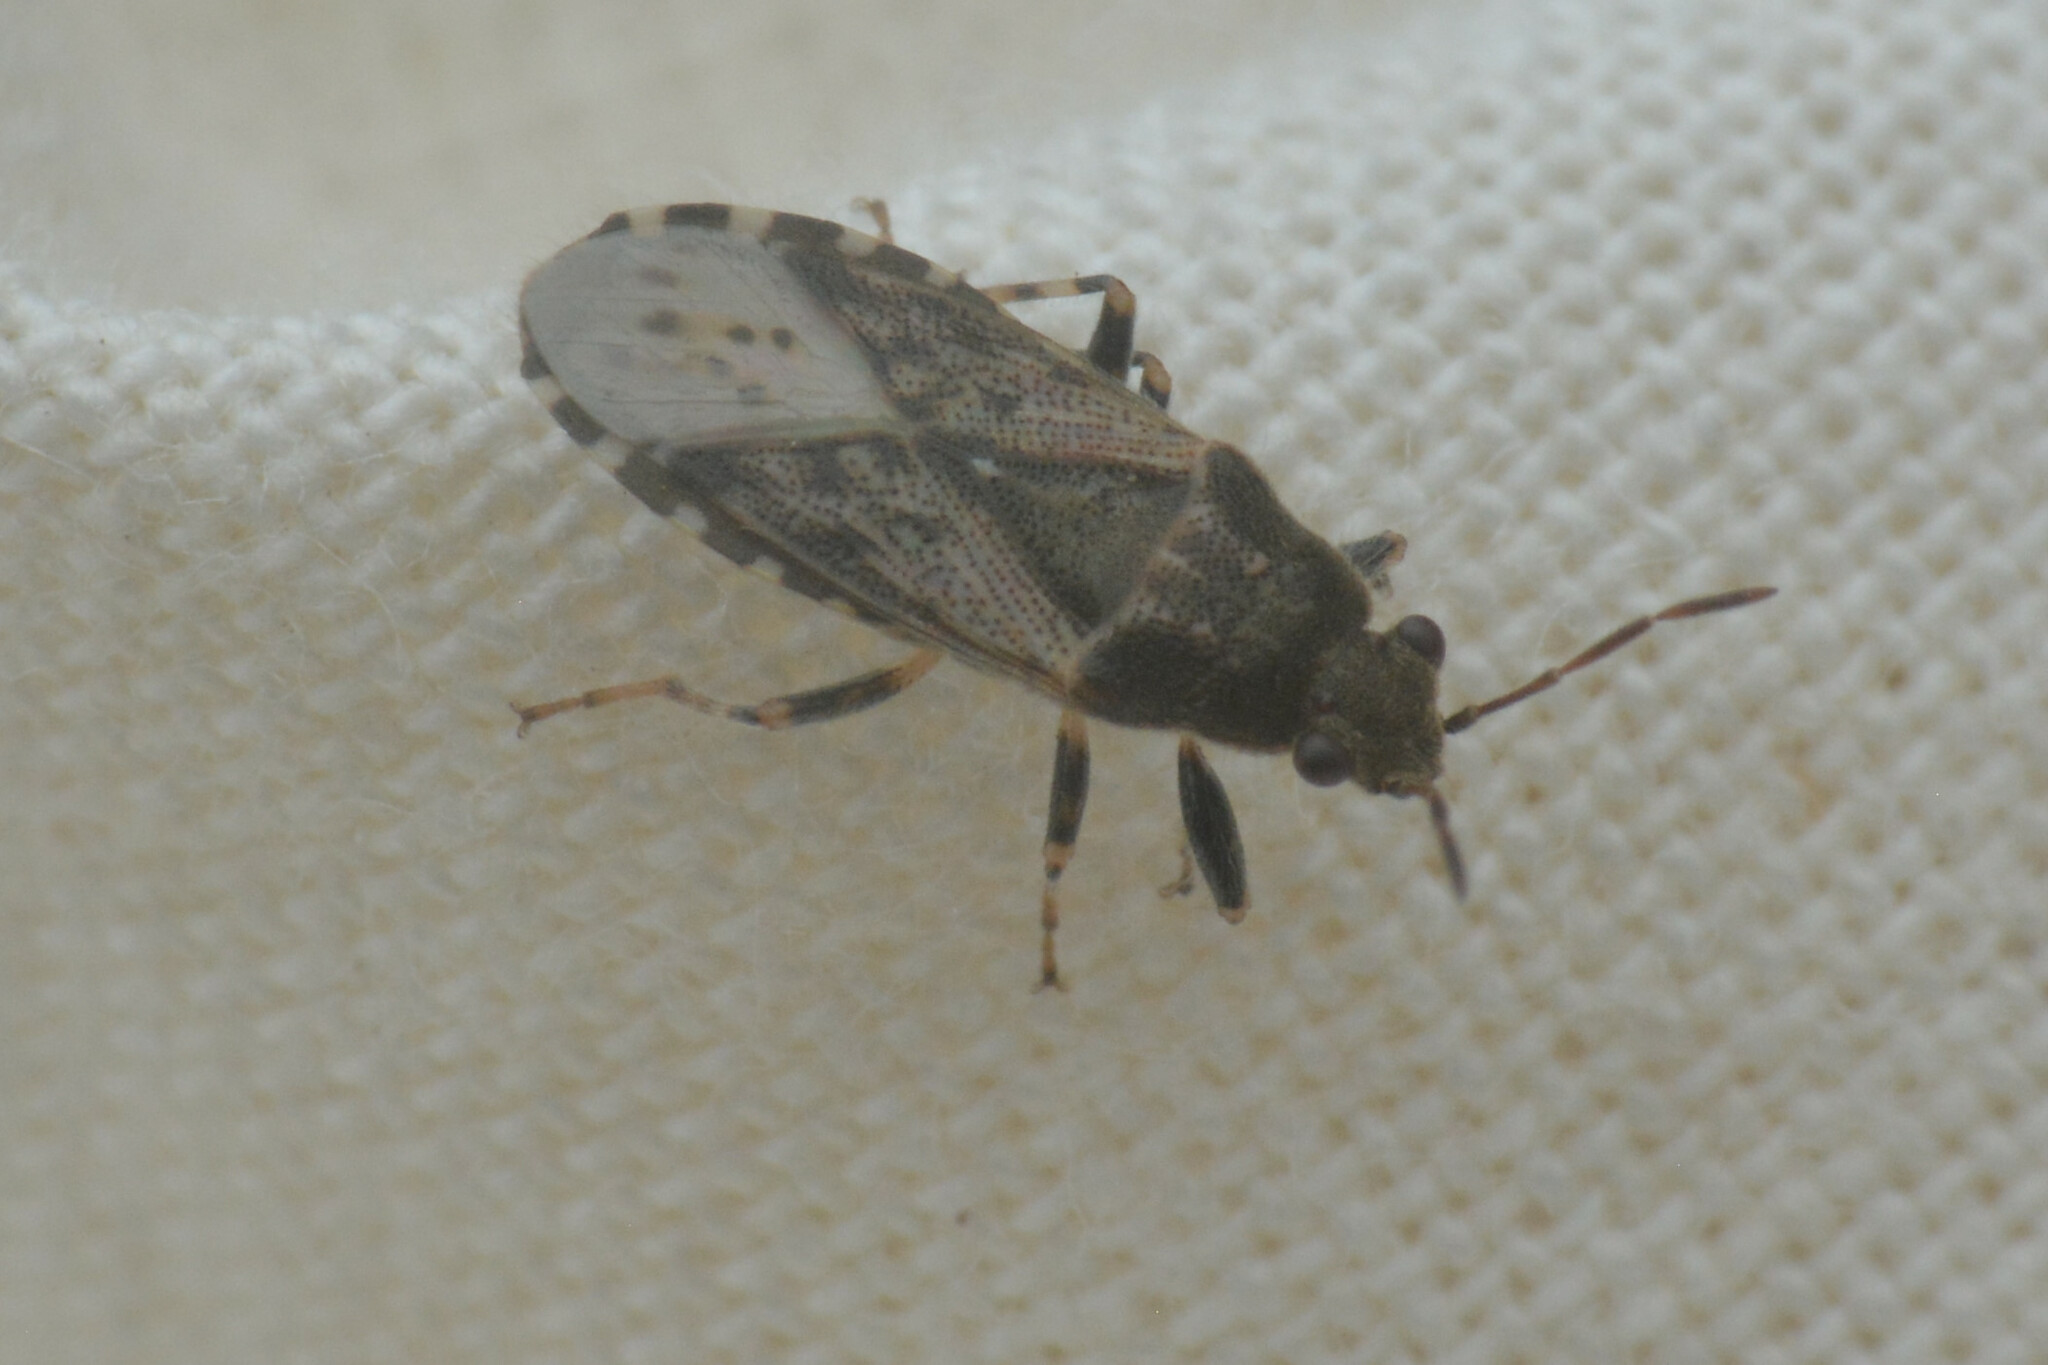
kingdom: Animalia
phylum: Arthropoda
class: Insecta
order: Hemiptera
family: Heterogastridae
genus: Heterogaster
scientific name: Heterogaster urticae
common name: Seed bug
